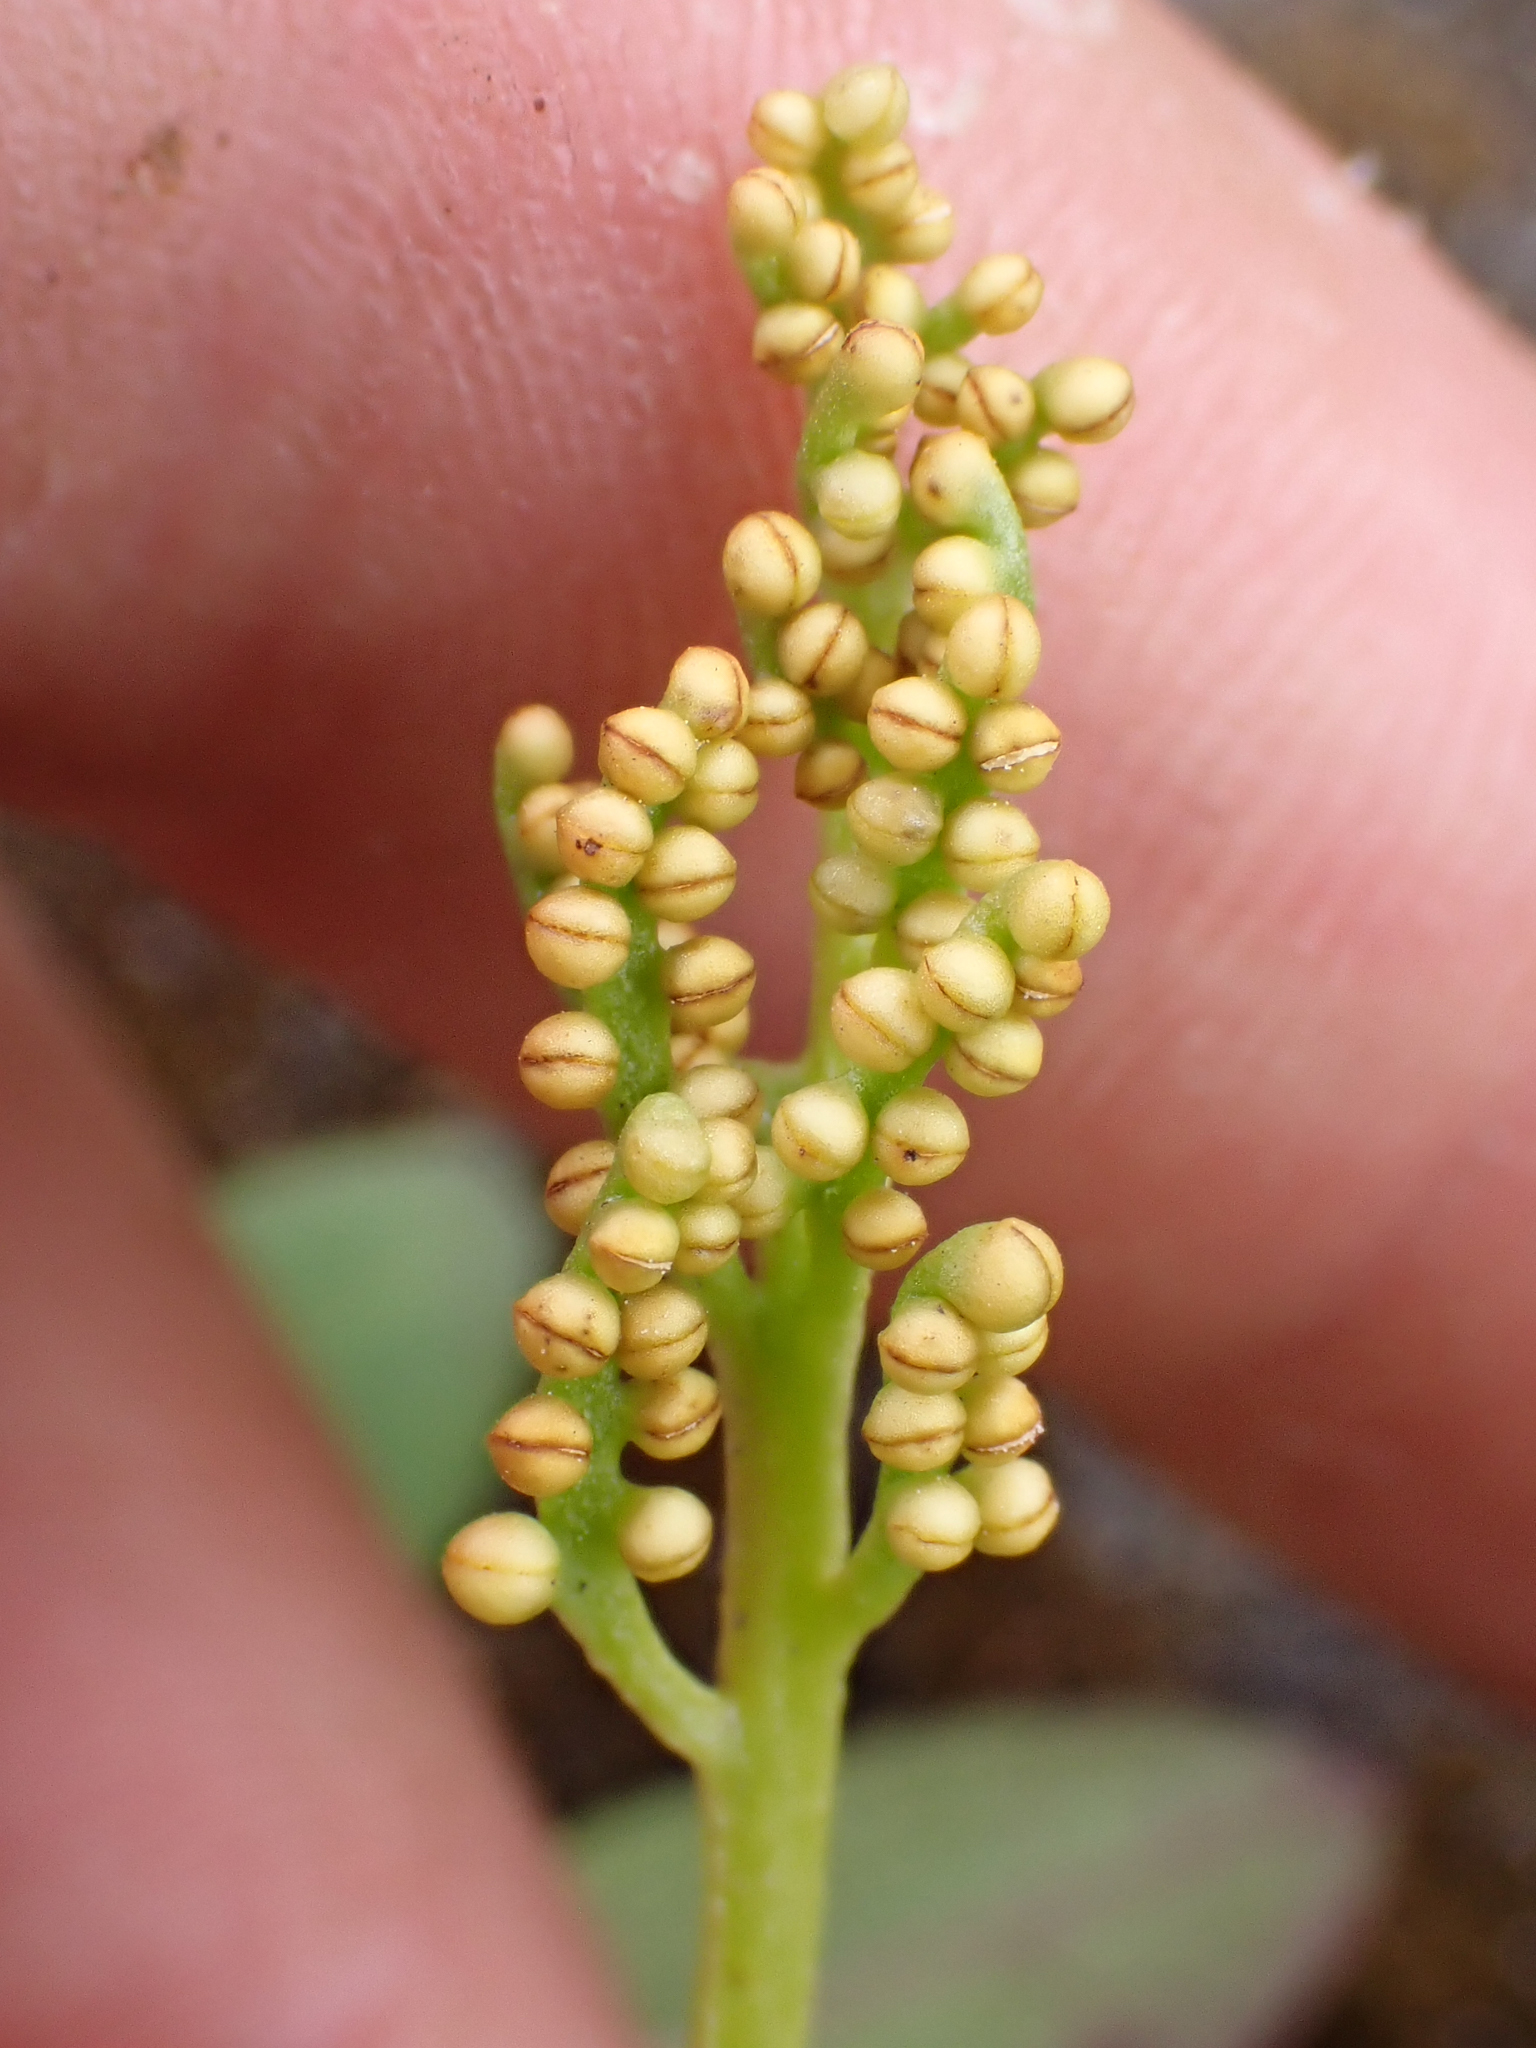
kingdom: Plantae
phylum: Tracheophyta
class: Polypodiopsida
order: Ophioglossales
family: Ophioglossaceae
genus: Botrychium
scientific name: Botrychium pinnatum
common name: Northwestern moonwort
